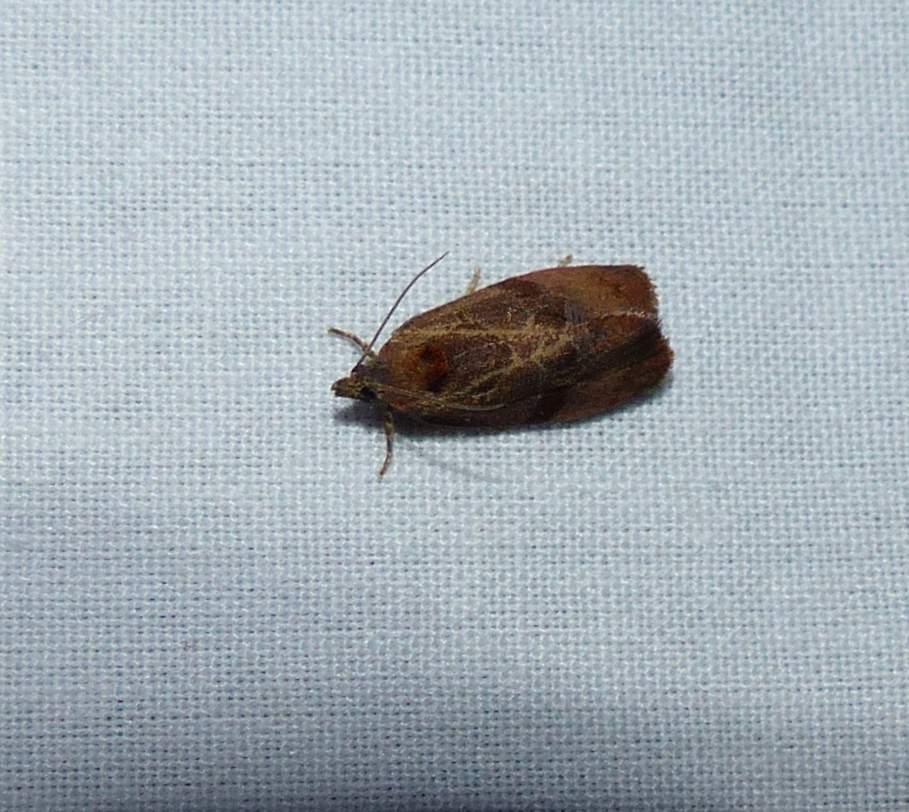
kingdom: Animalia
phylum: Arthropoda
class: Insecta
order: Lepidoptera
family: Tortricidae
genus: Evora
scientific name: Evora hemidesma
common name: Spirea leaftier moth
